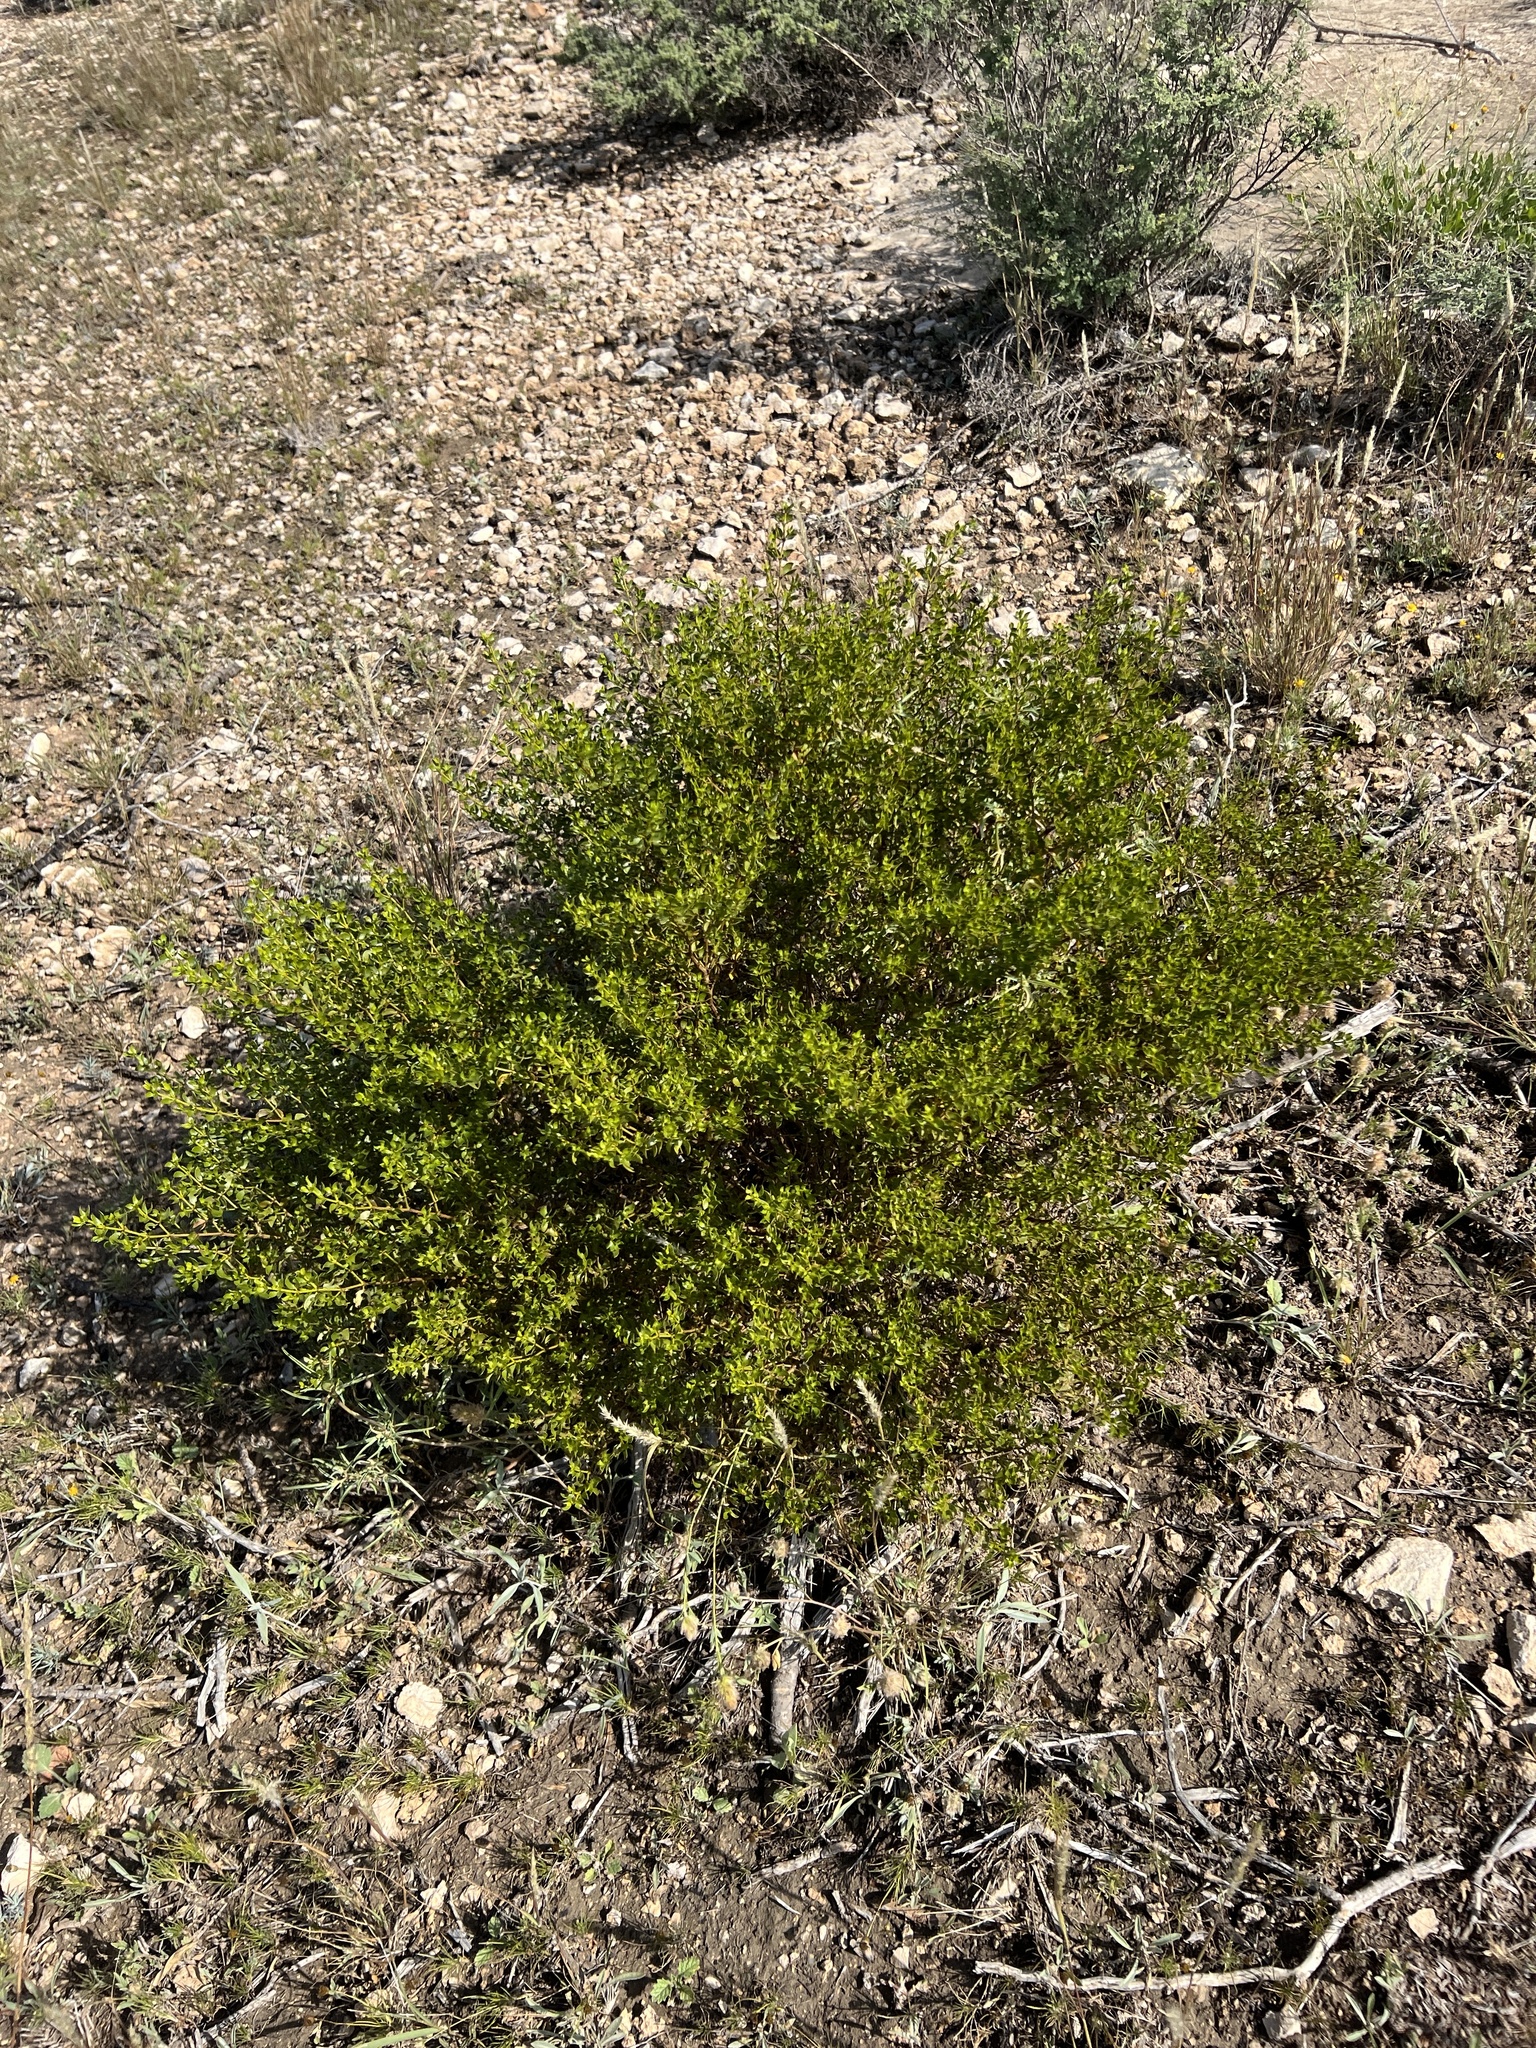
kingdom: Plantae
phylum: Tracheophyta
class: Magnoliopsida
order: Zygophyllales
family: Zygophyllaceae
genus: Larrea
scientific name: Larrea tridentata
